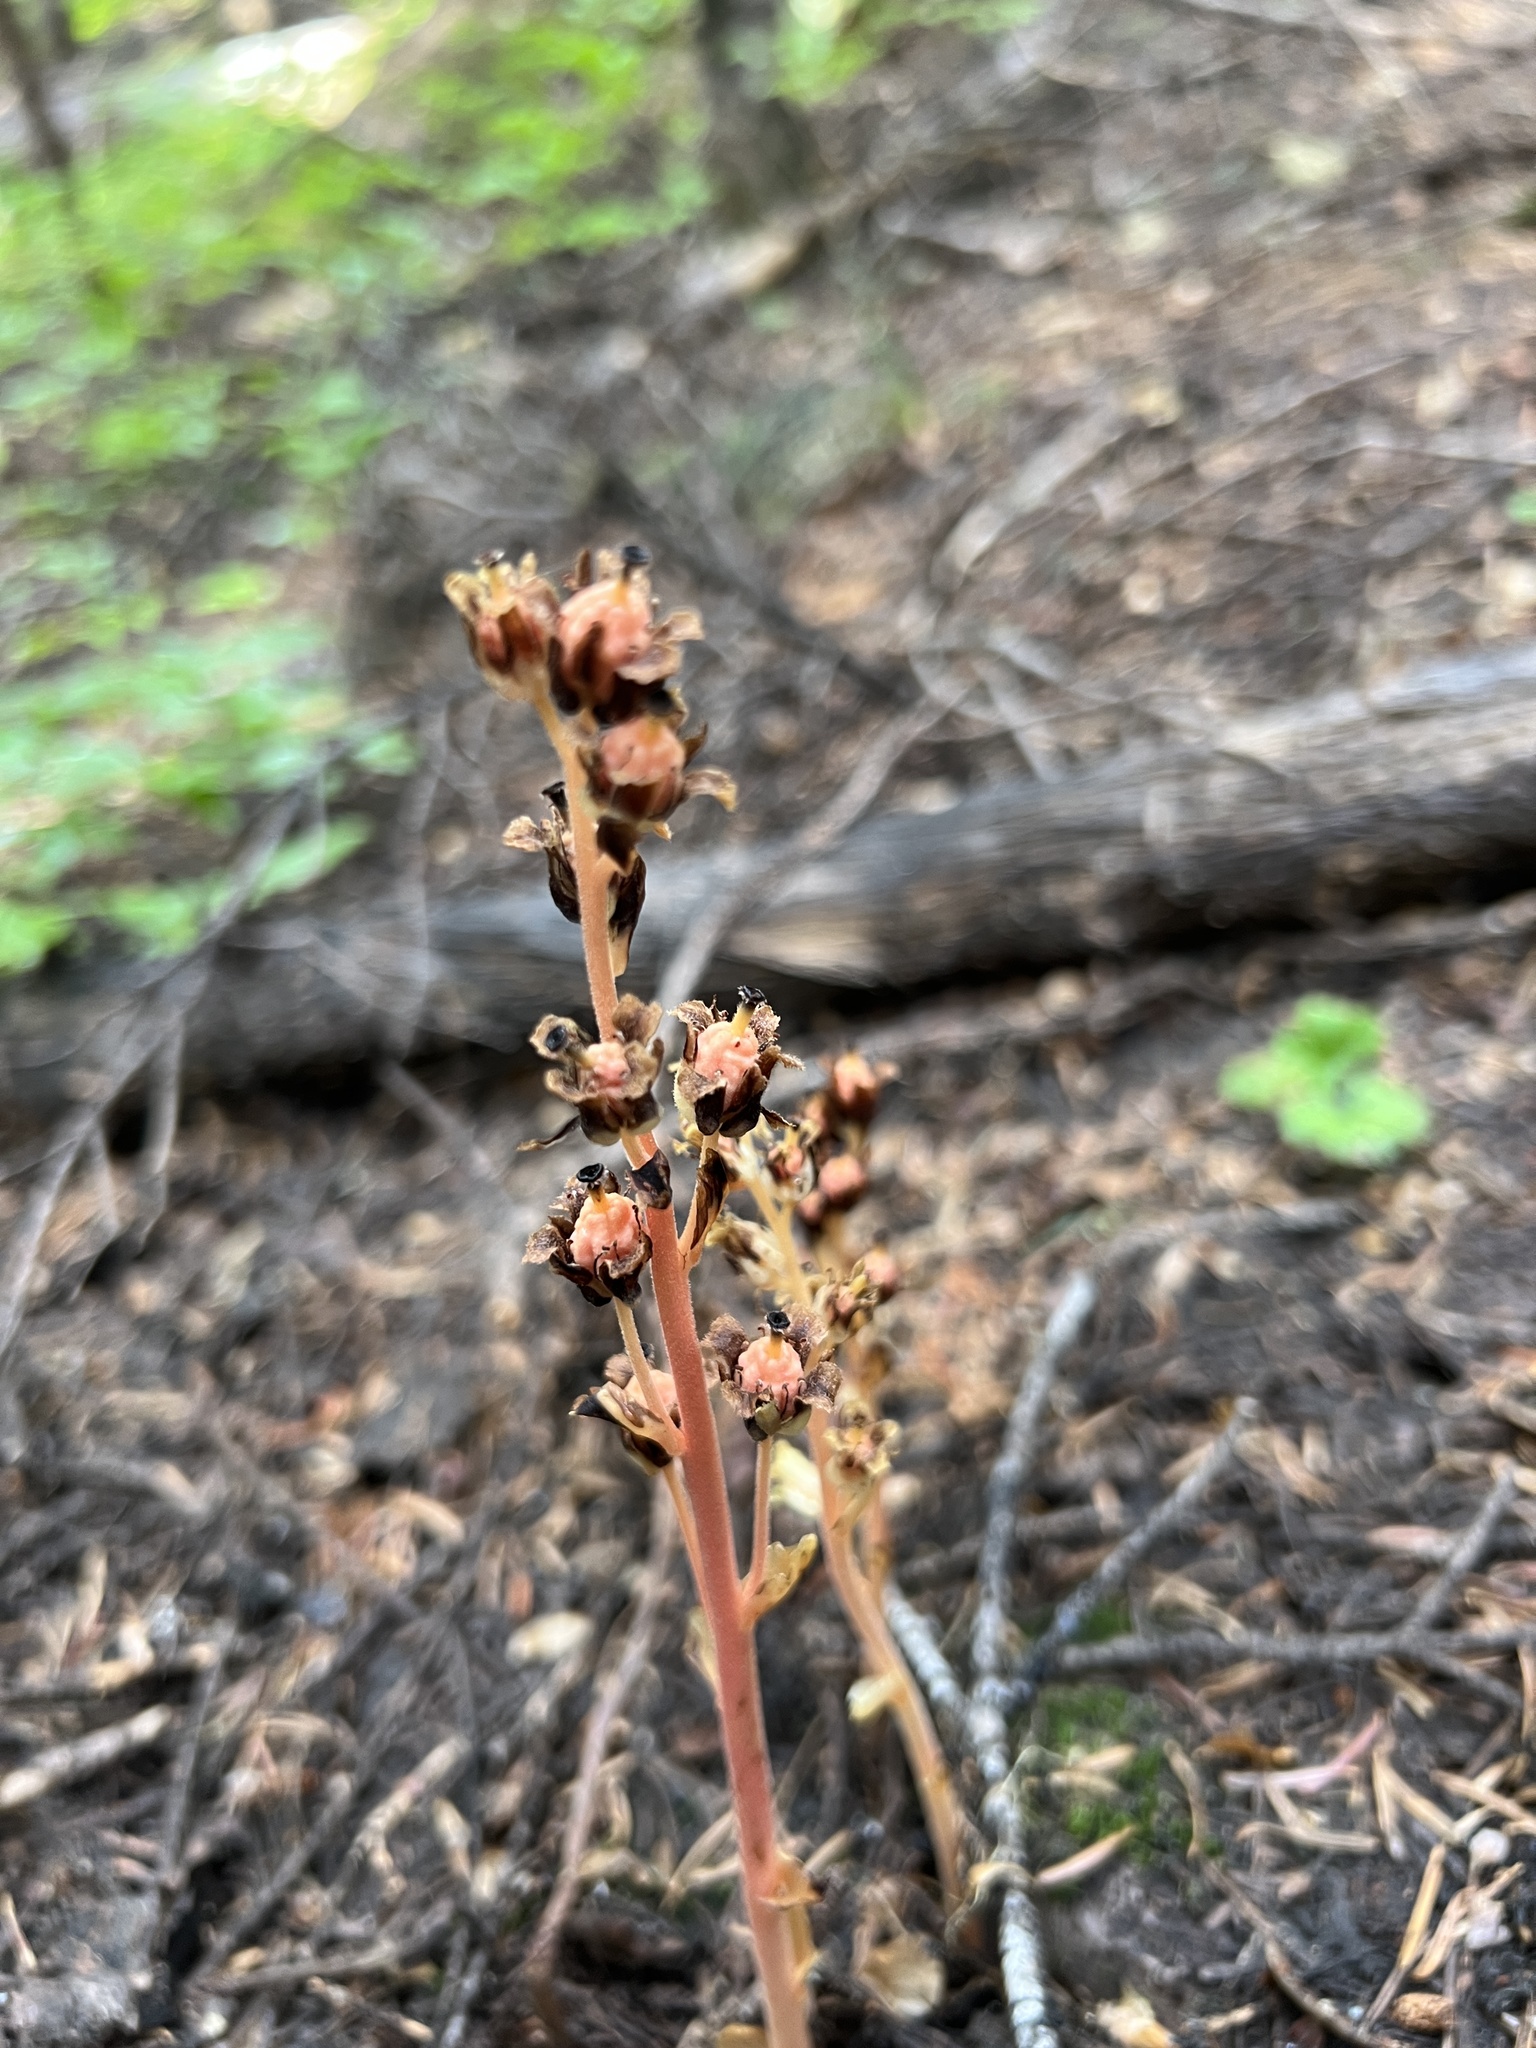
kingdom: Plantae
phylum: Tracheophyta
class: Magnoliopsida
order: Ericales
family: Ericaceae
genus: Hypopitys
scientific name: Hypopitys monotropa
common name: Yellow bird's-nest
